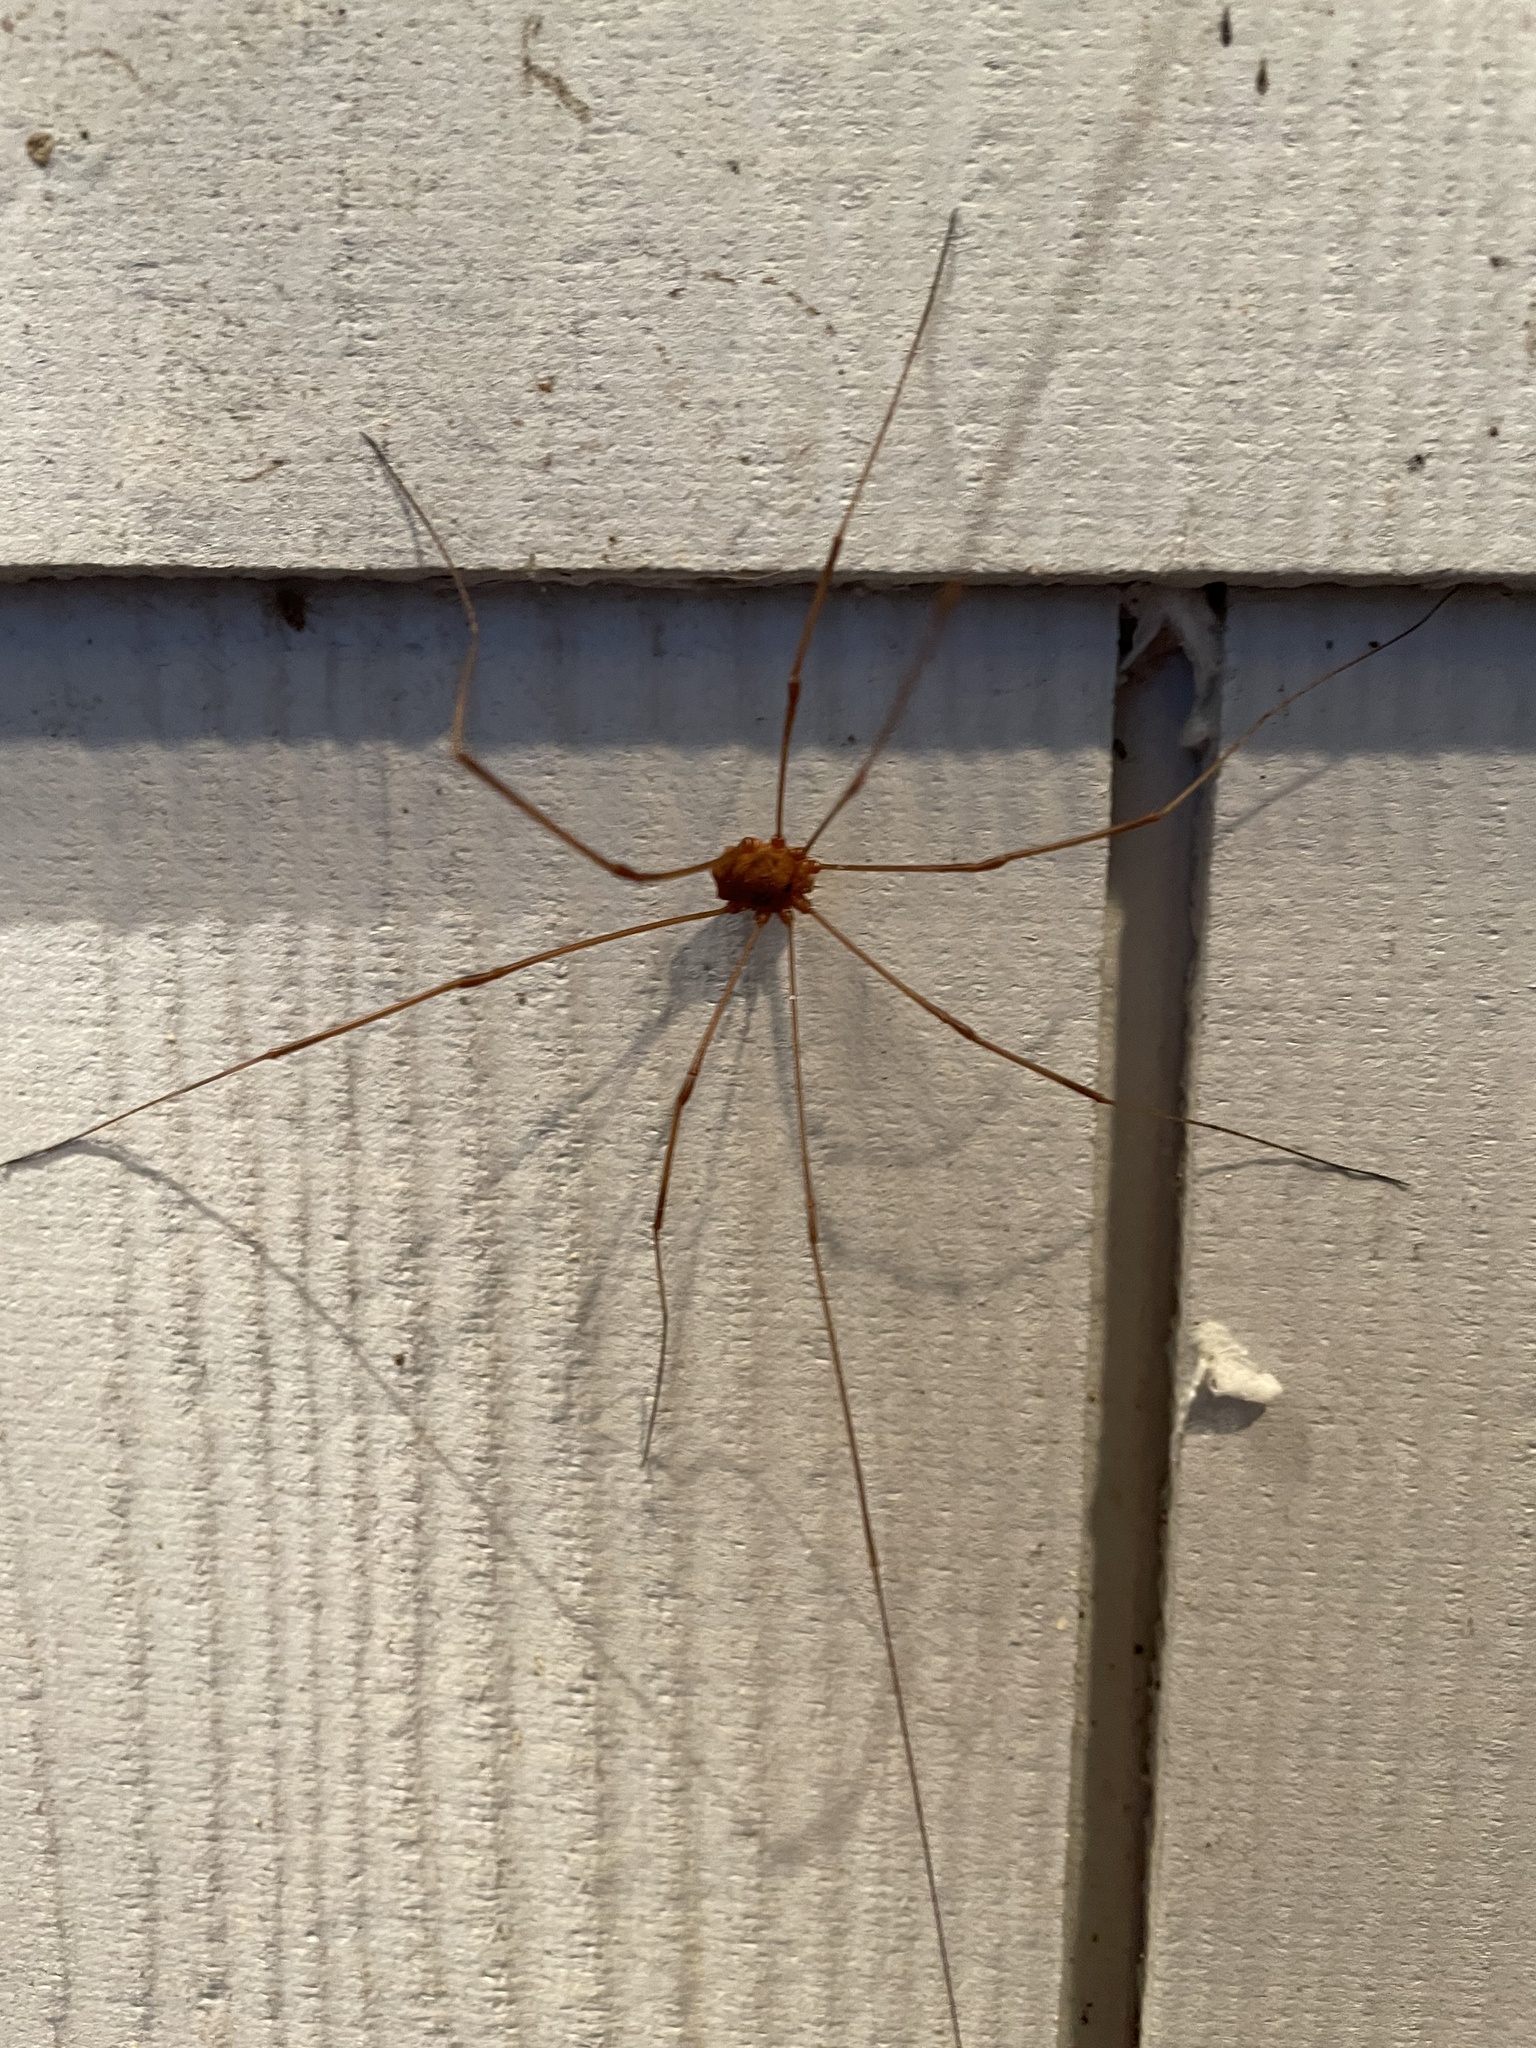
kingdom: Animalia
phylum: Arthropoda
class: Arachnida
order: Opiliones
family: Sclerosomatidae
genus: Leiobunum
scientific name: Leiobunum flavum
